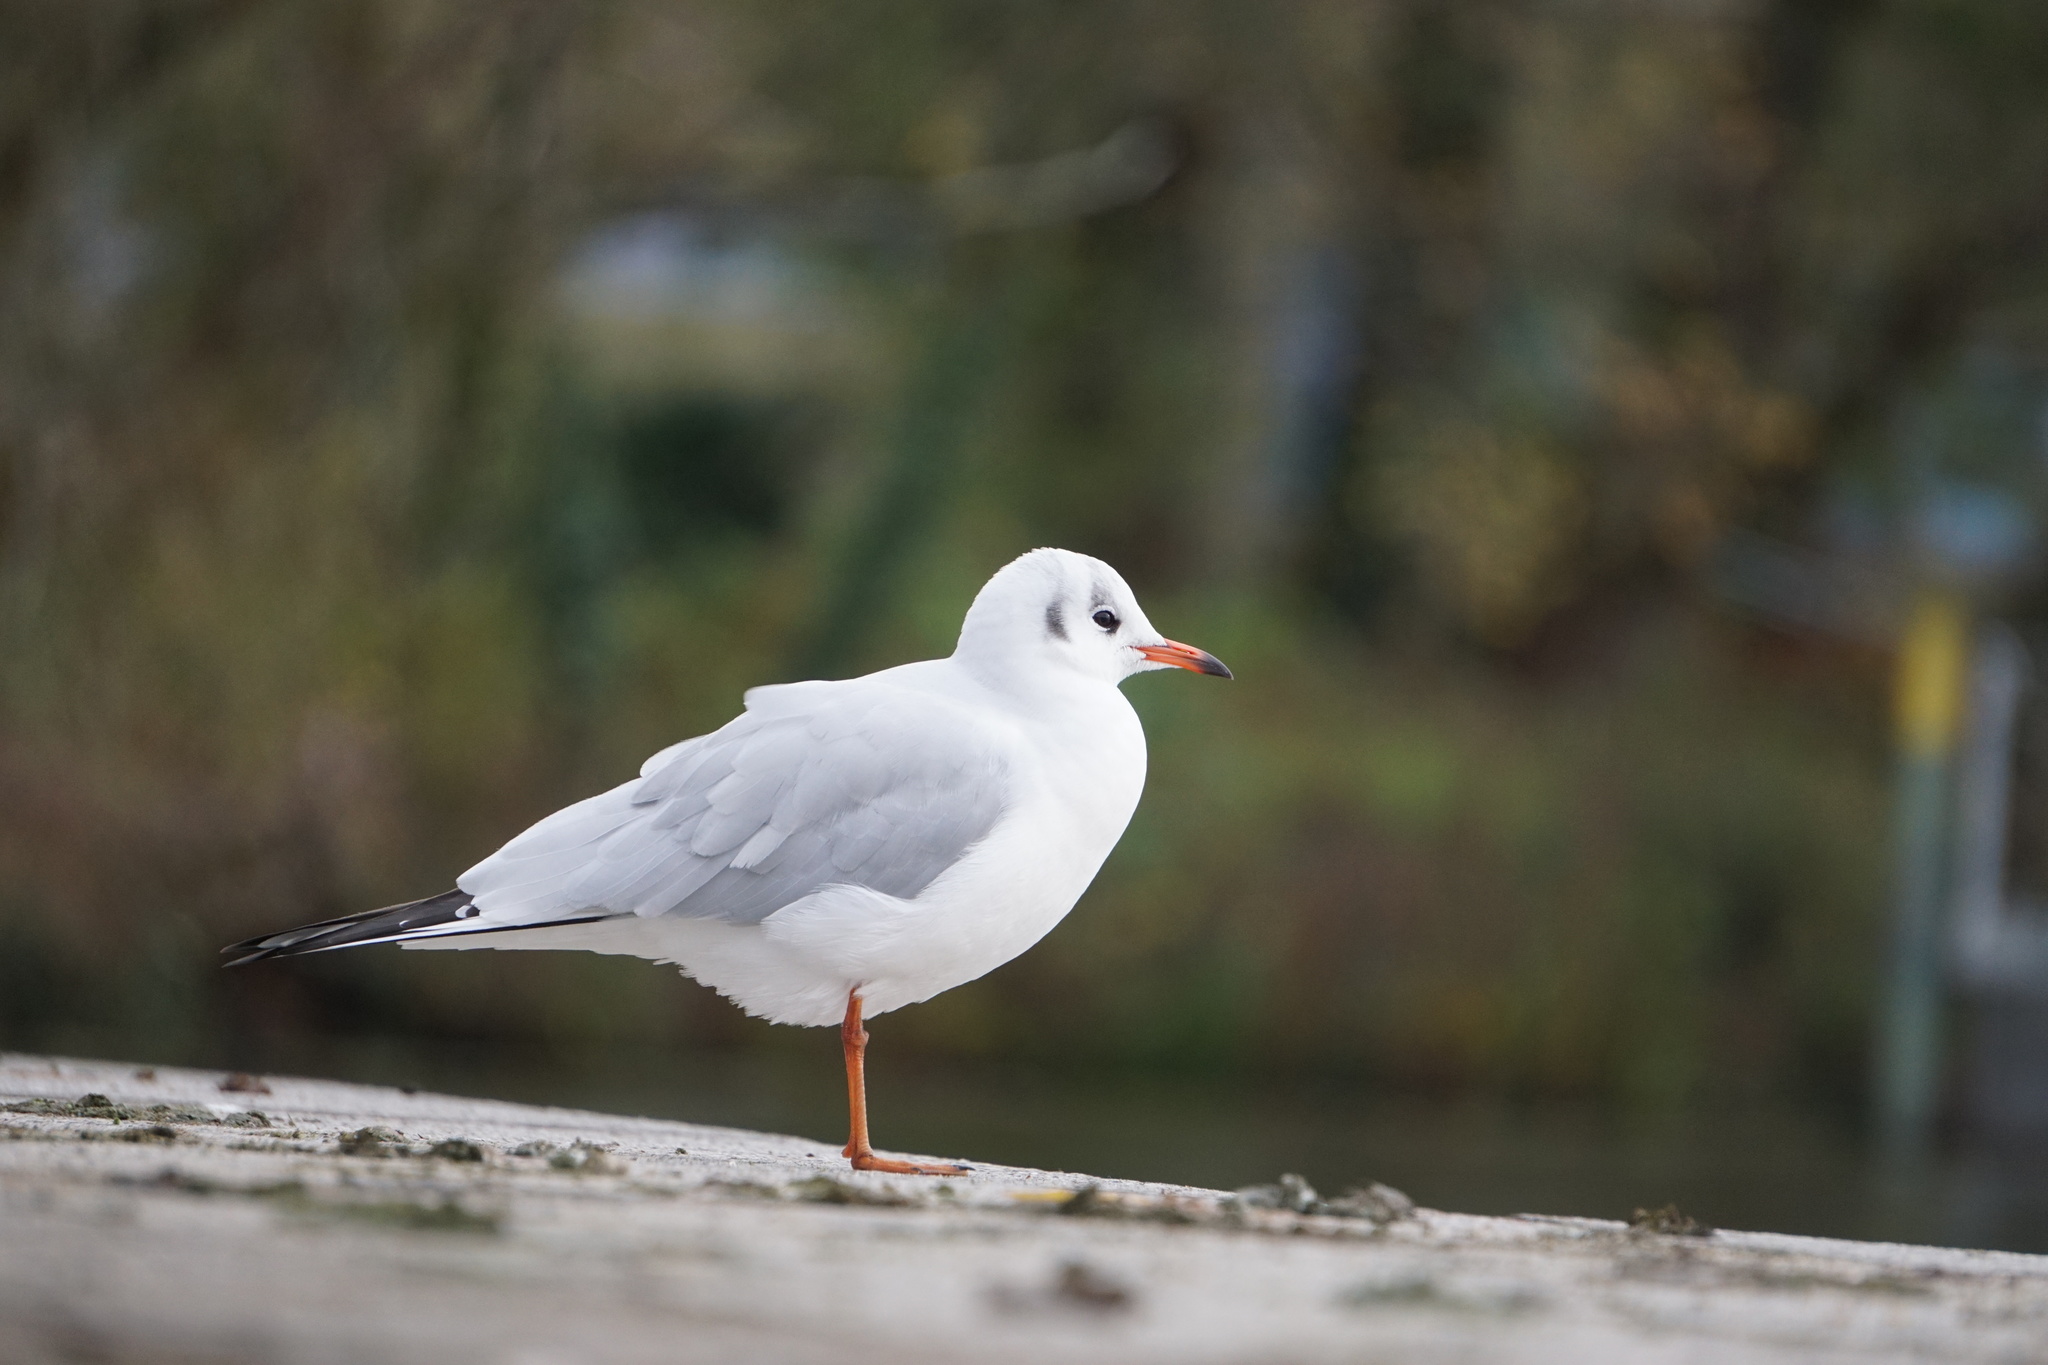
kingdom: Animalia
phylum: Chordata
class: Aves
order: Charadriiformes
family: Laridae
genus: Chroicocephalus
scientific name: Chroicocephalus ridibundus
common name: Black-headed gull
